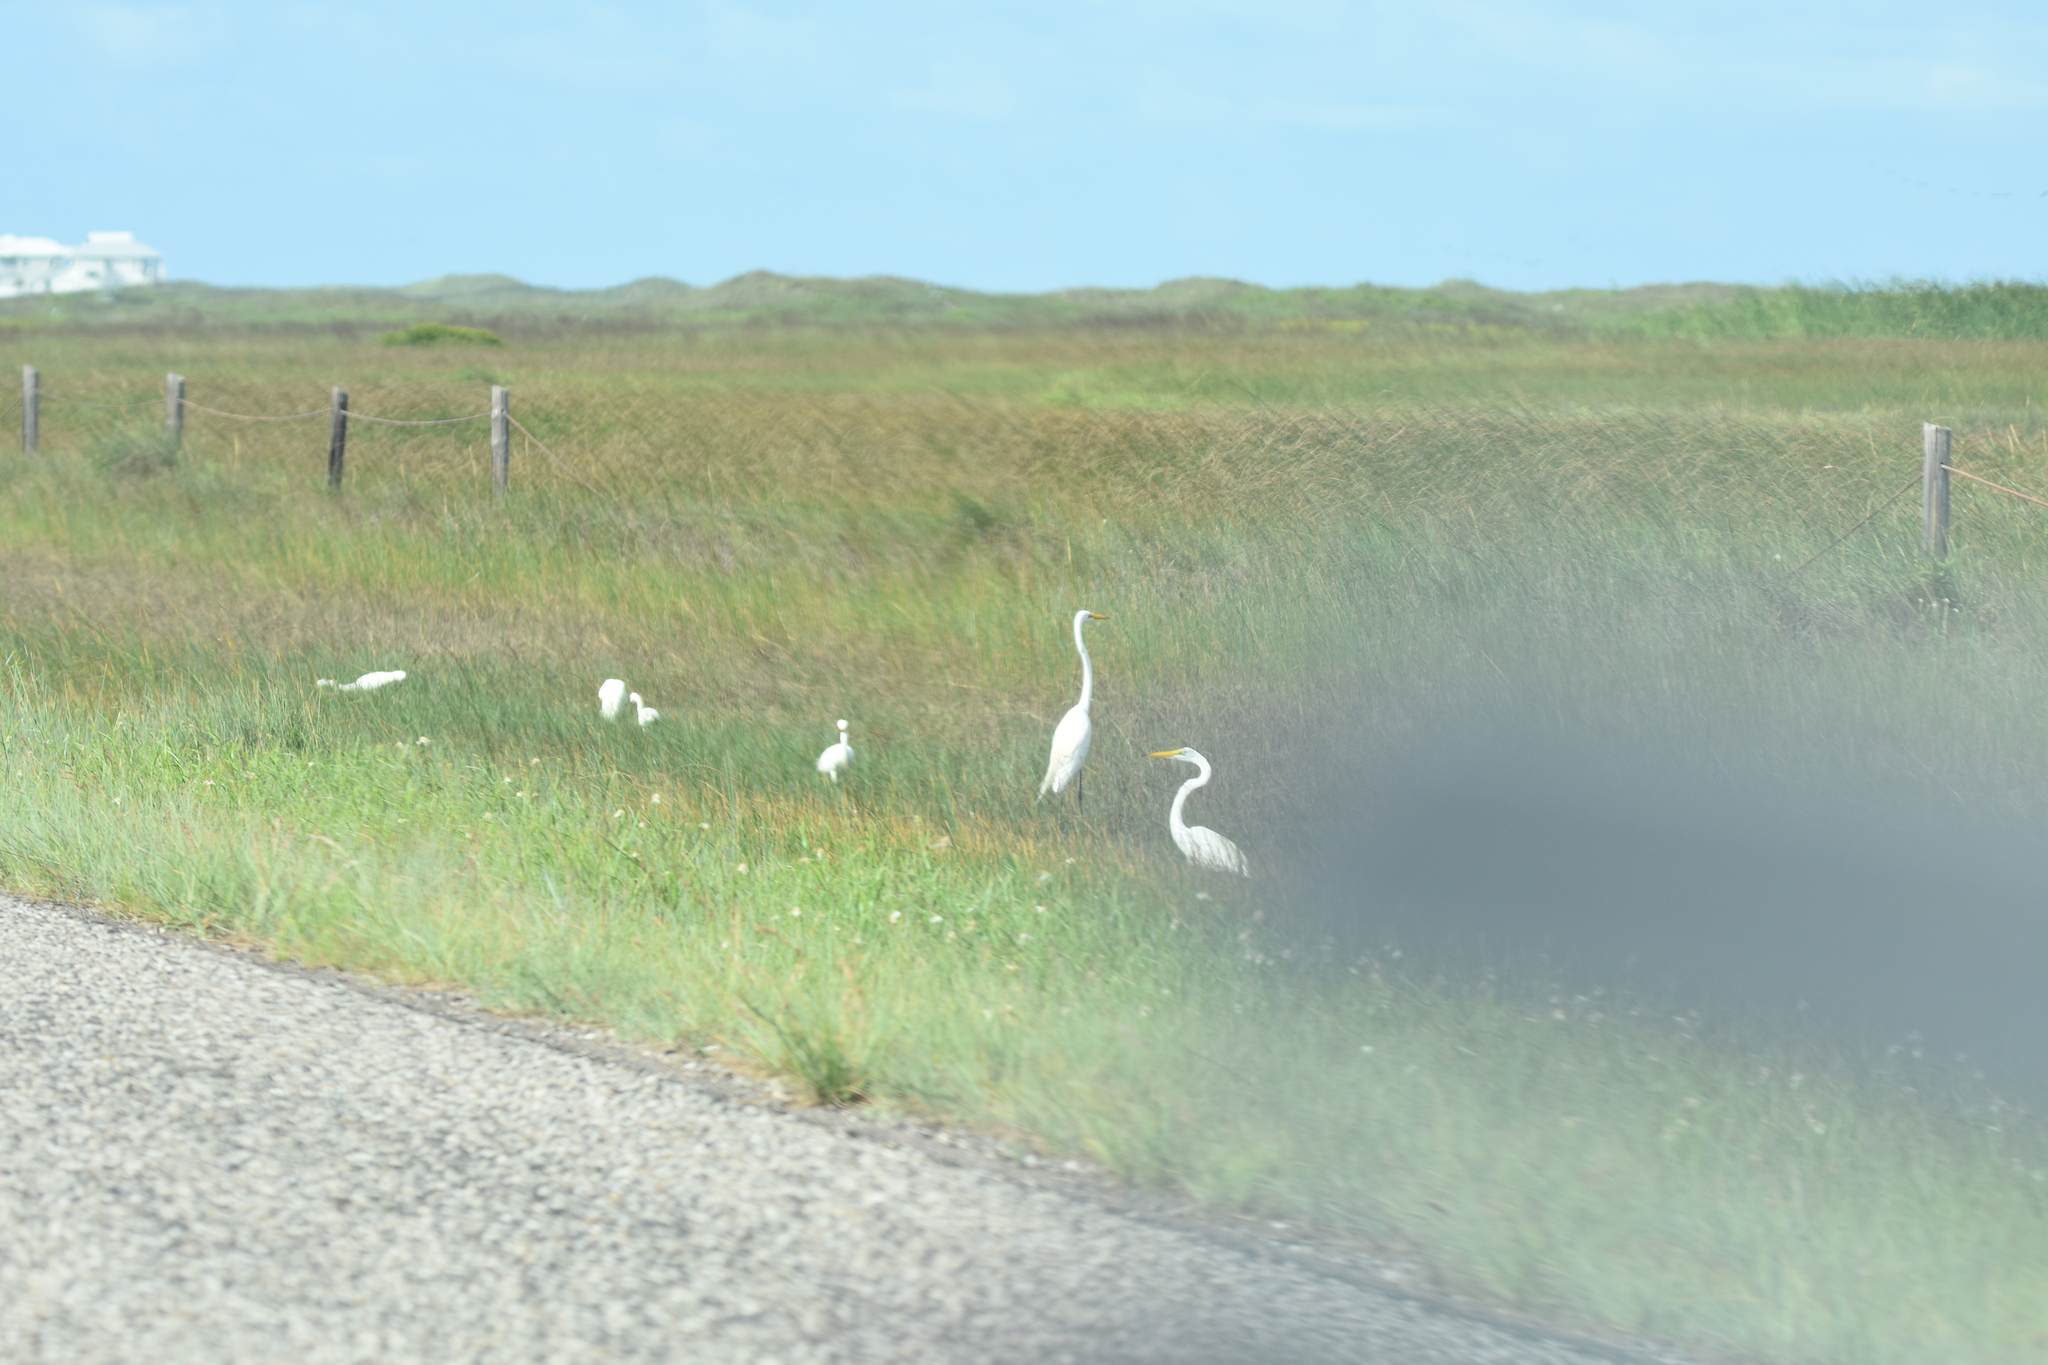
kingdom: Animalia
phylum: Chordata
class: Aves
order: Pelecaniformes
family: Ardeidae
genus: Egretta
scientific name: Egretta thula
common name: Snowy egret
